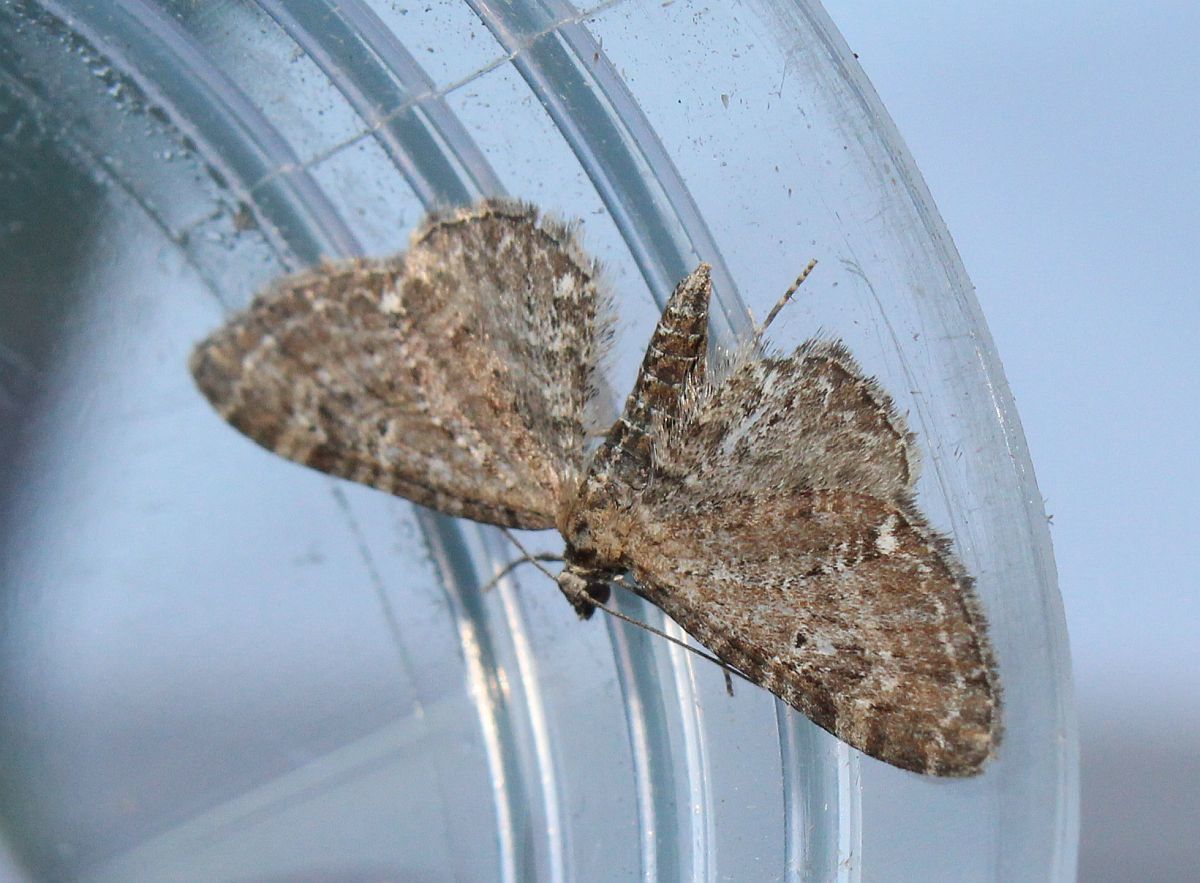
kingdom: Animalia
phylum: Arthropoda
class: Insecta
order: Lepidoptera
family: Geometridae
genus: Eupithecia
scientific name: Eupithecia vulgata
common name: Common pug
